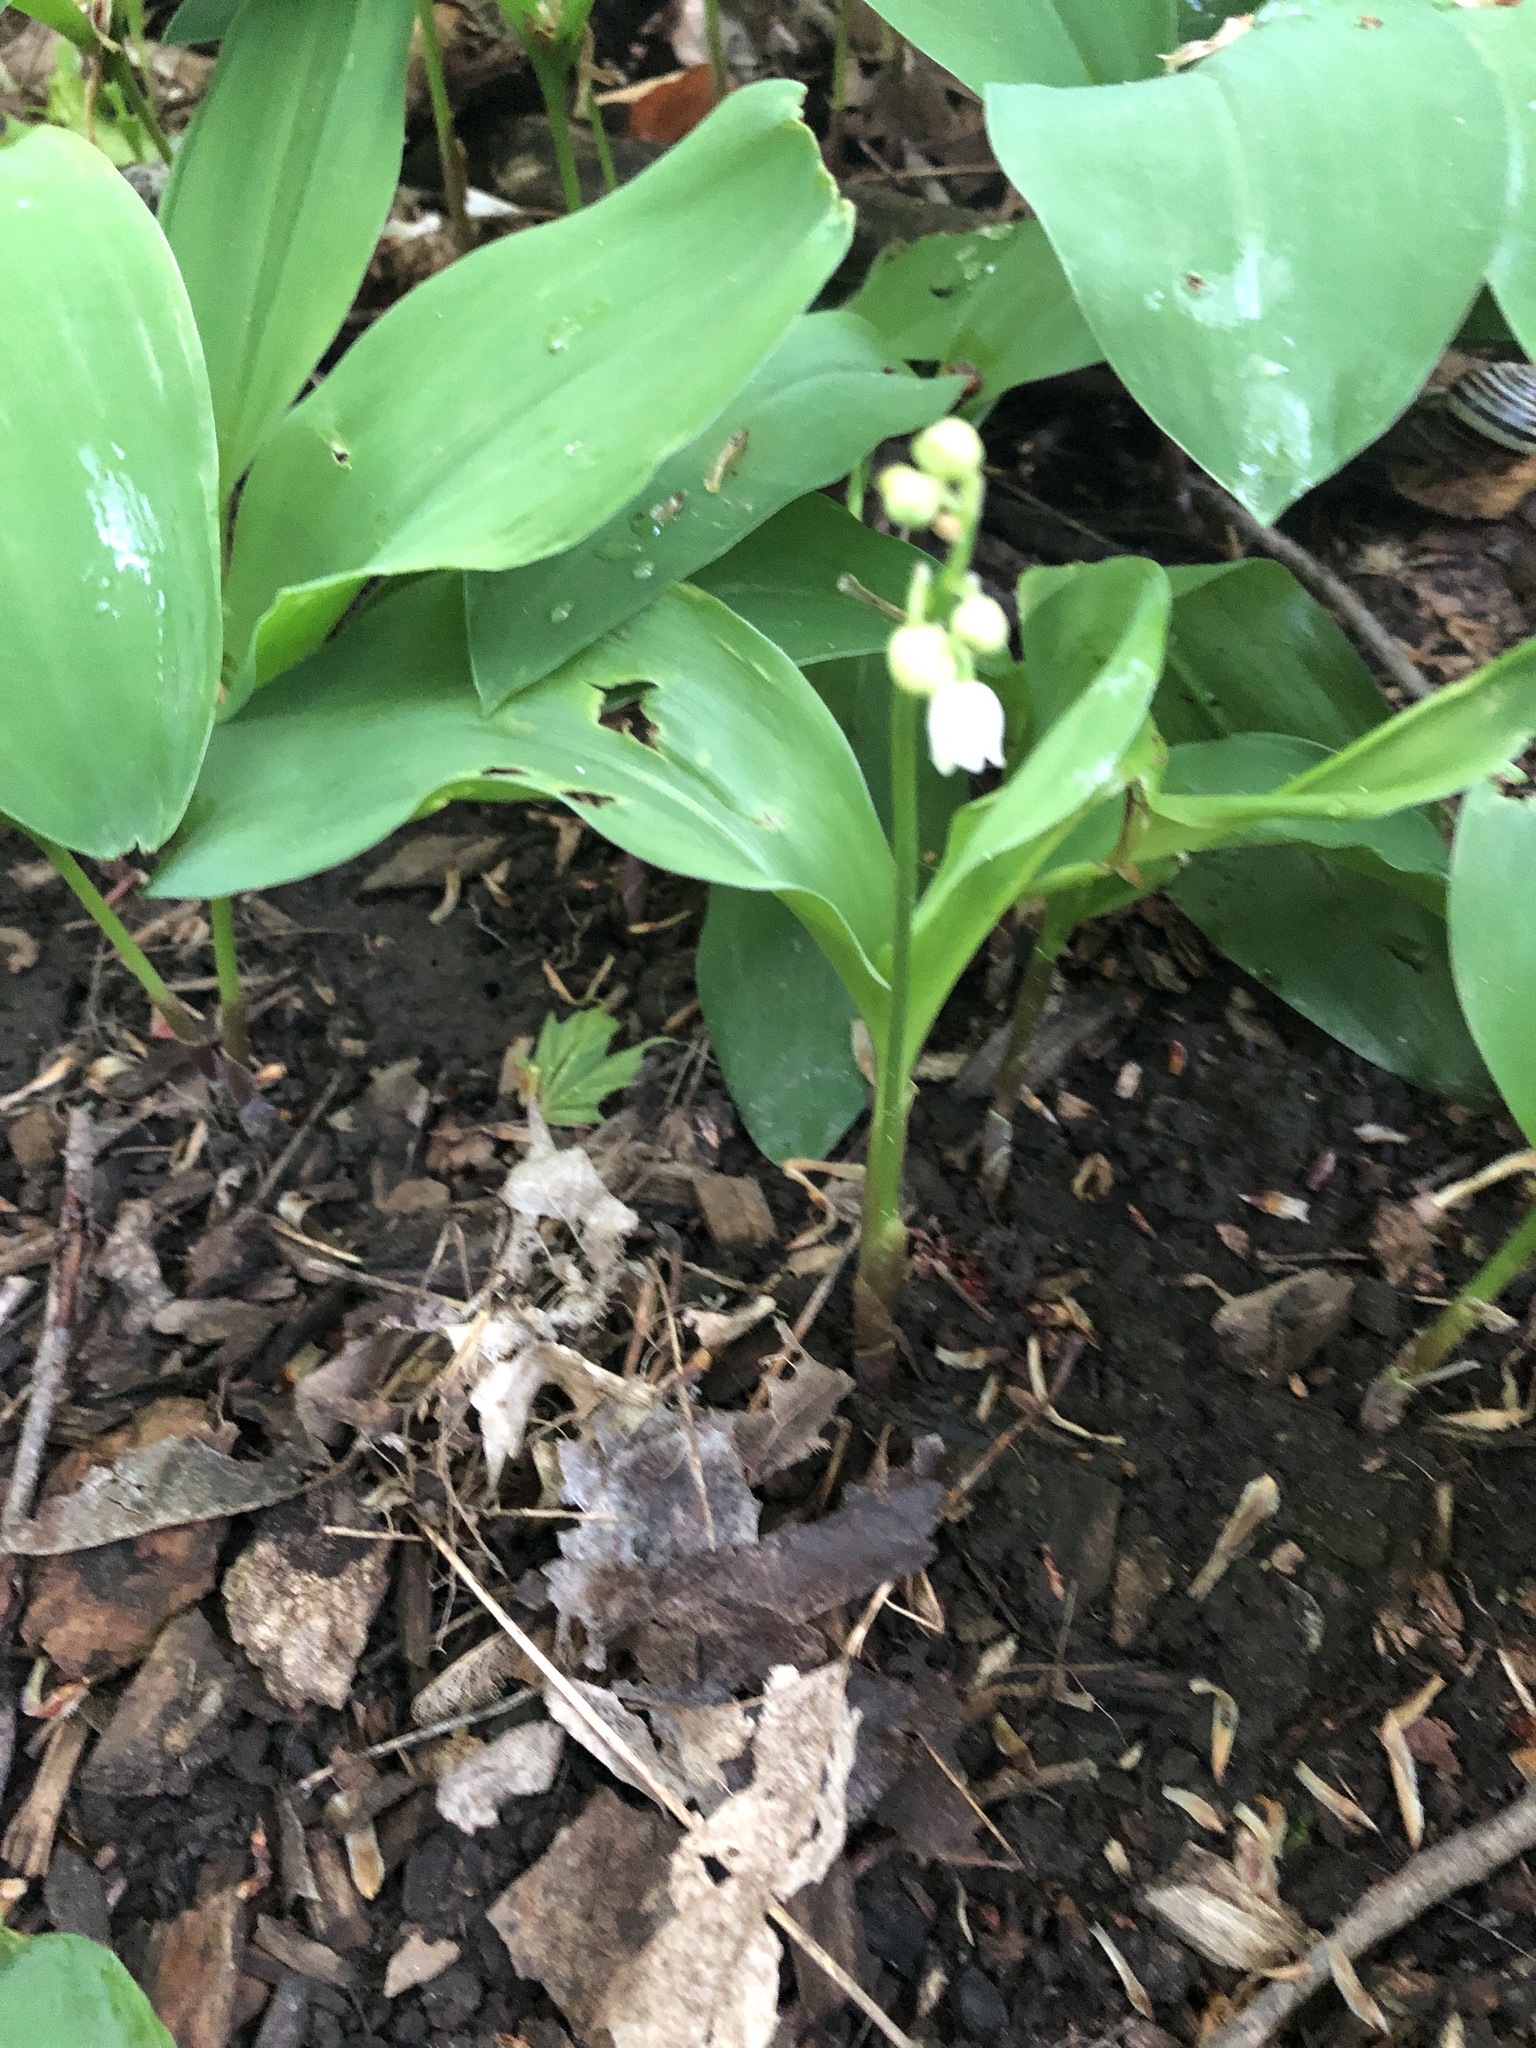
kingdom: Plantae
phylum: Tracheophyta
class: Liliopsida
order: Asparagales
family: Asparagaceae
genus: Convallaria
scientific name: Convallaria majalis
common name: Lily-of-the-valley
